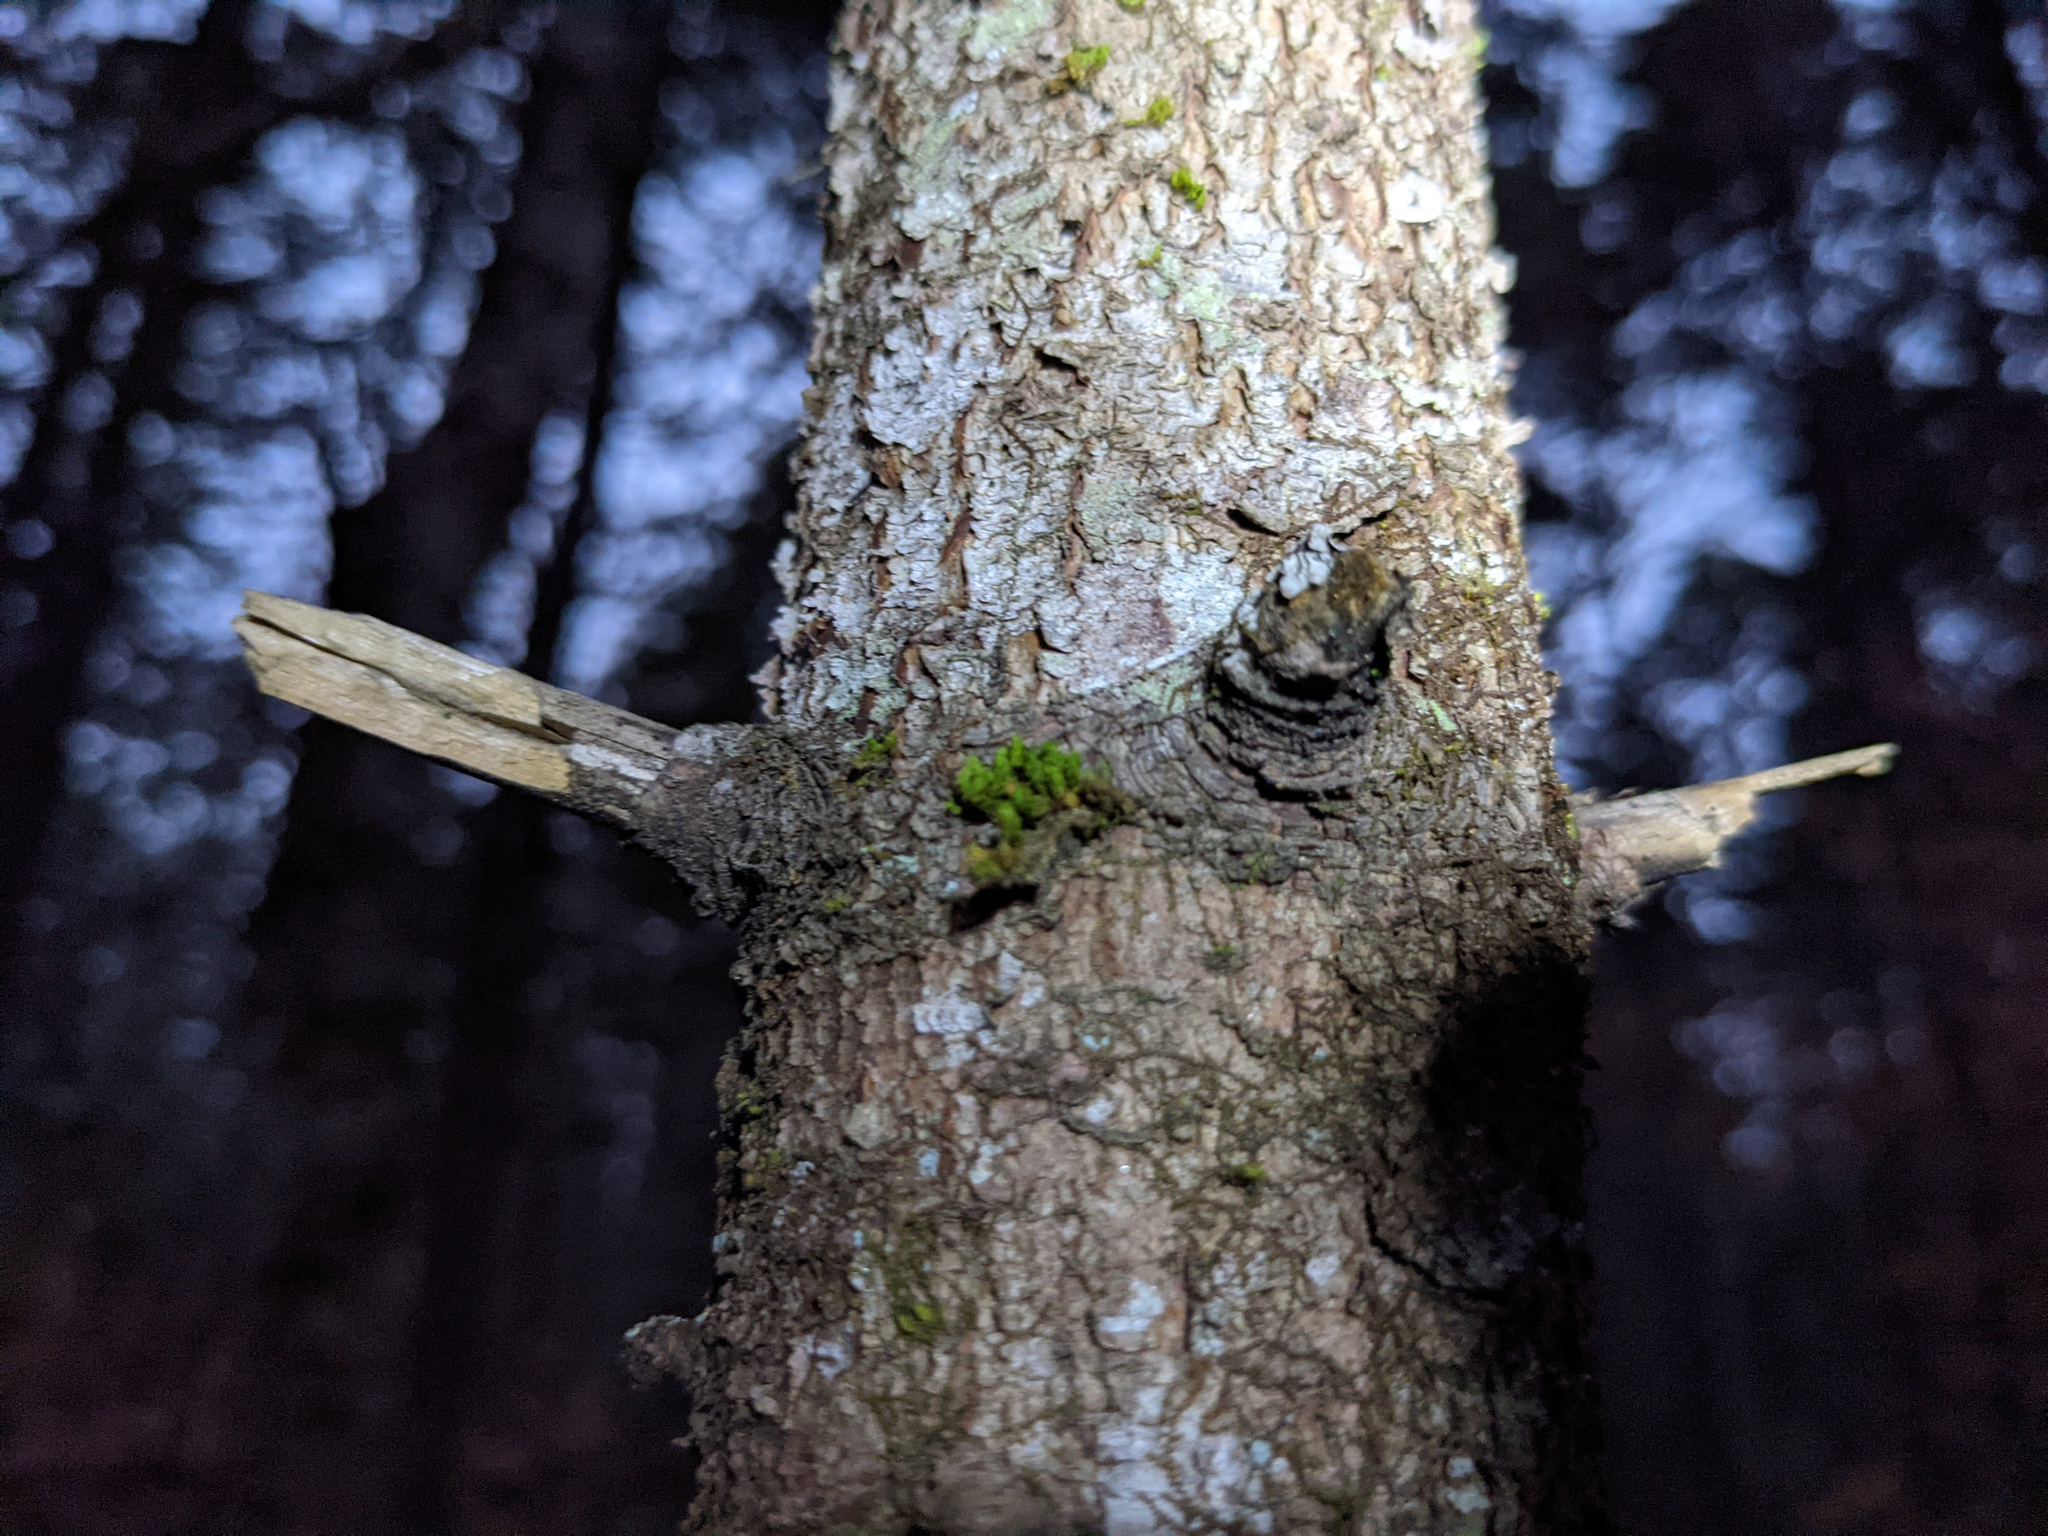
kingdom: Plantae
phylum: Bryophyta
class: Bryopsida
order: Orthotrichales
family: Orthotrichaceae
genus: Ulota
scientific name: Ulota crispa
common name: Crisped pincushion moss
